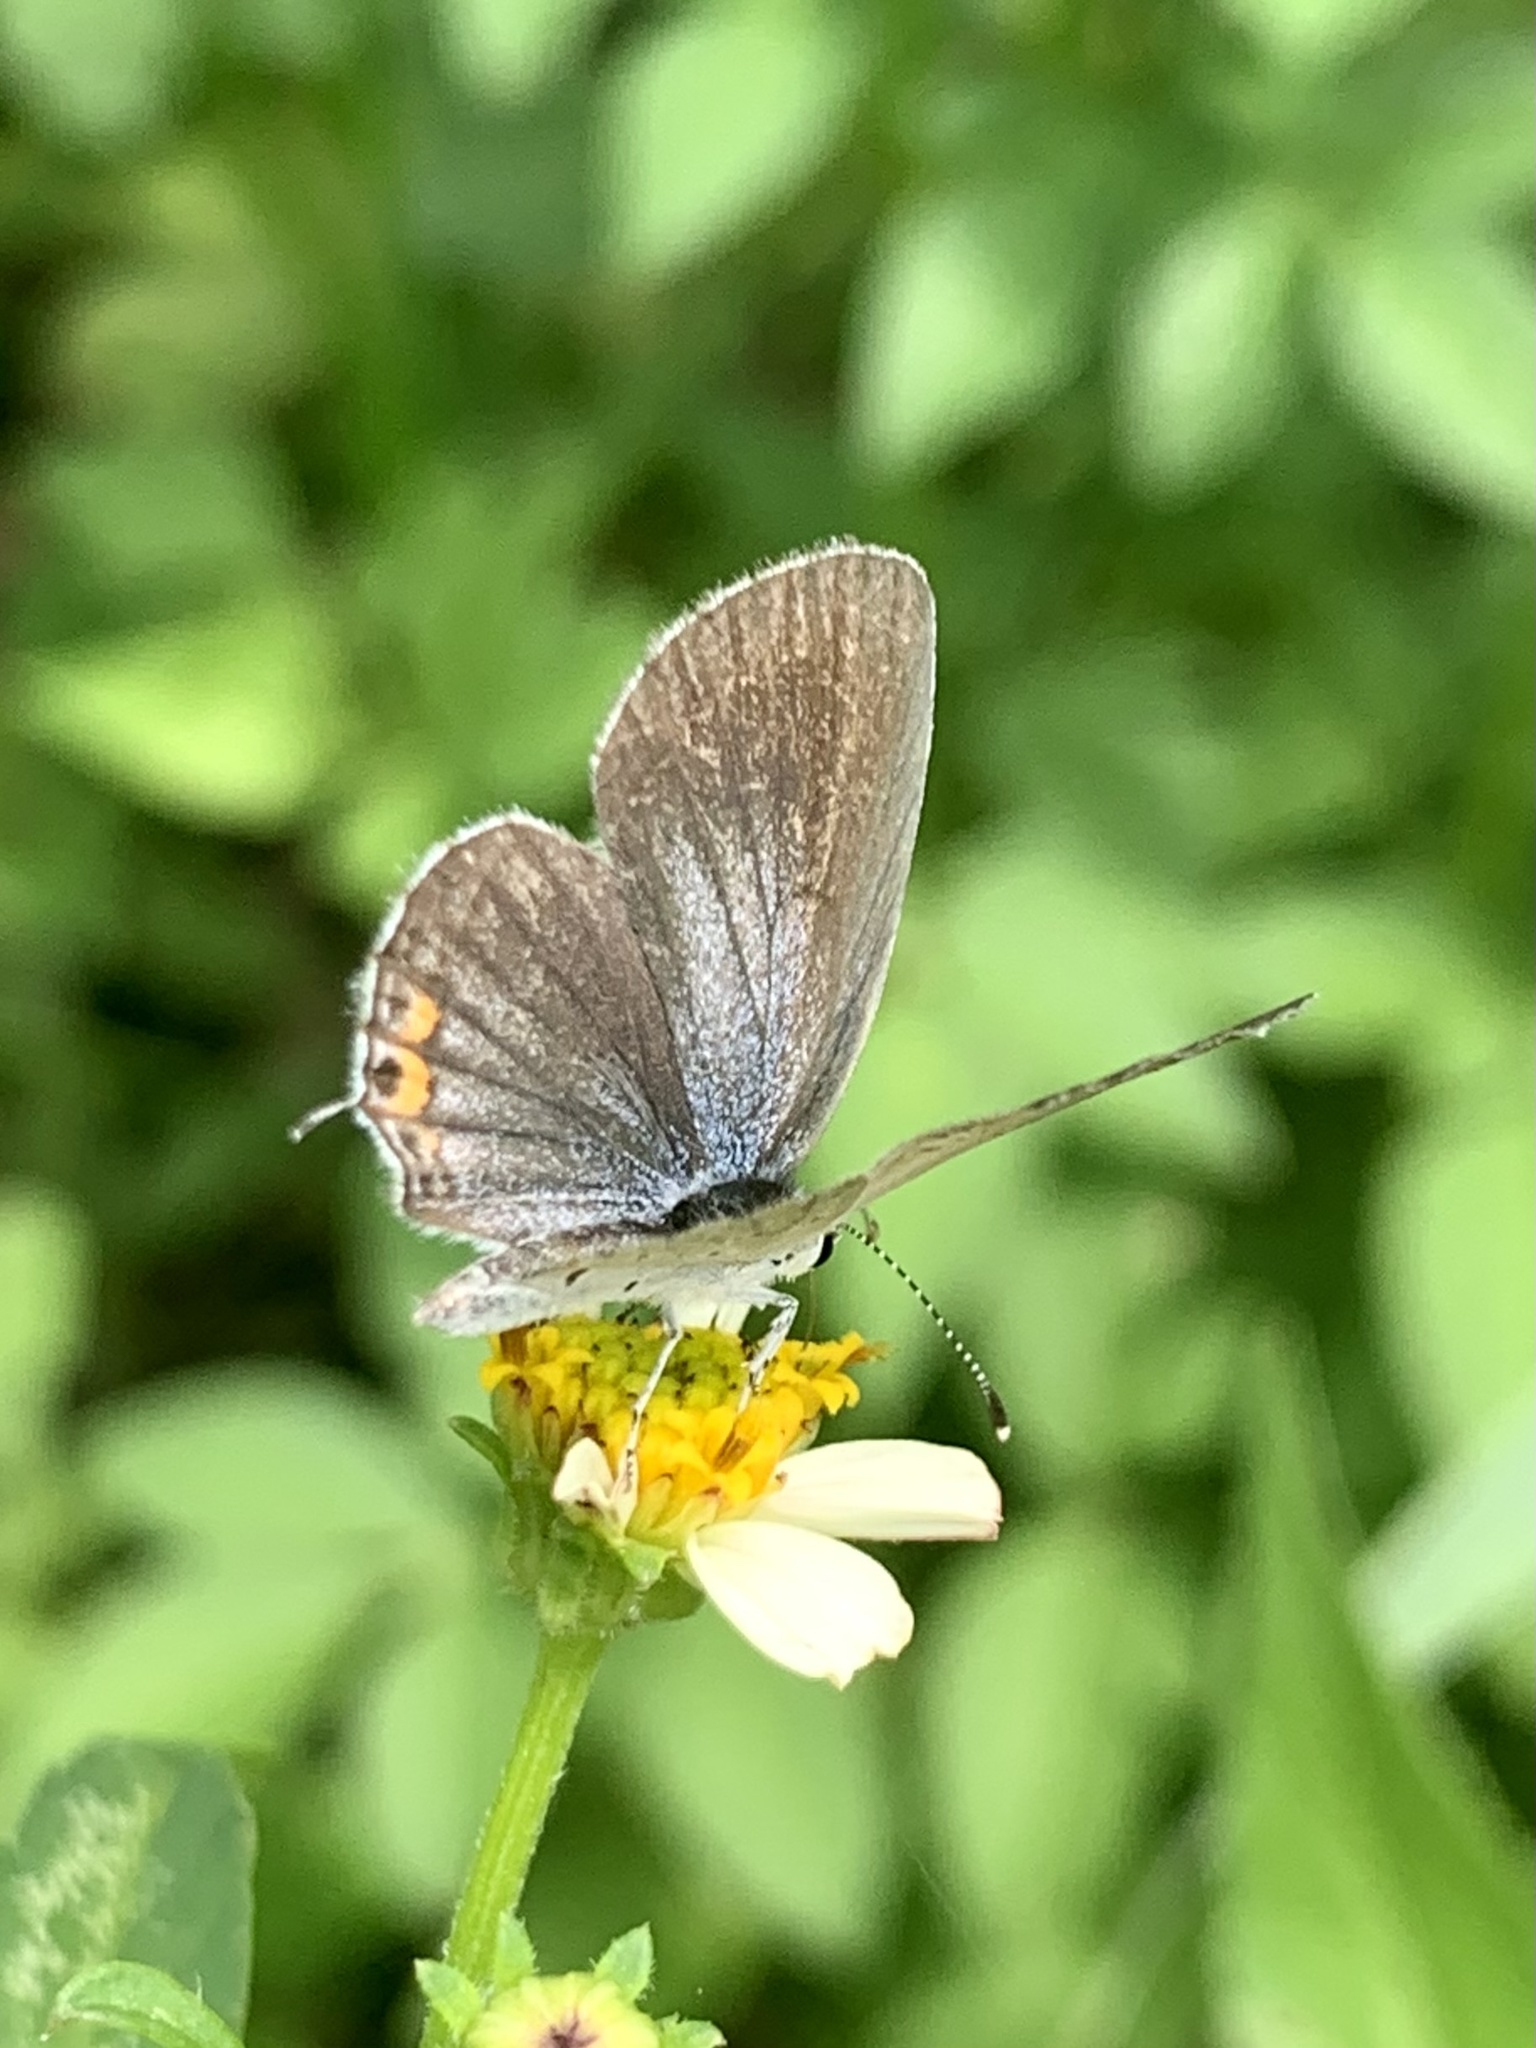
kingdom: Animalia
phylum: Arthropoda
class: Insecta
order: Lepidoptera
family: Lycaenidae
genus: Elkalyce
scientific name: Elkalyce texana
